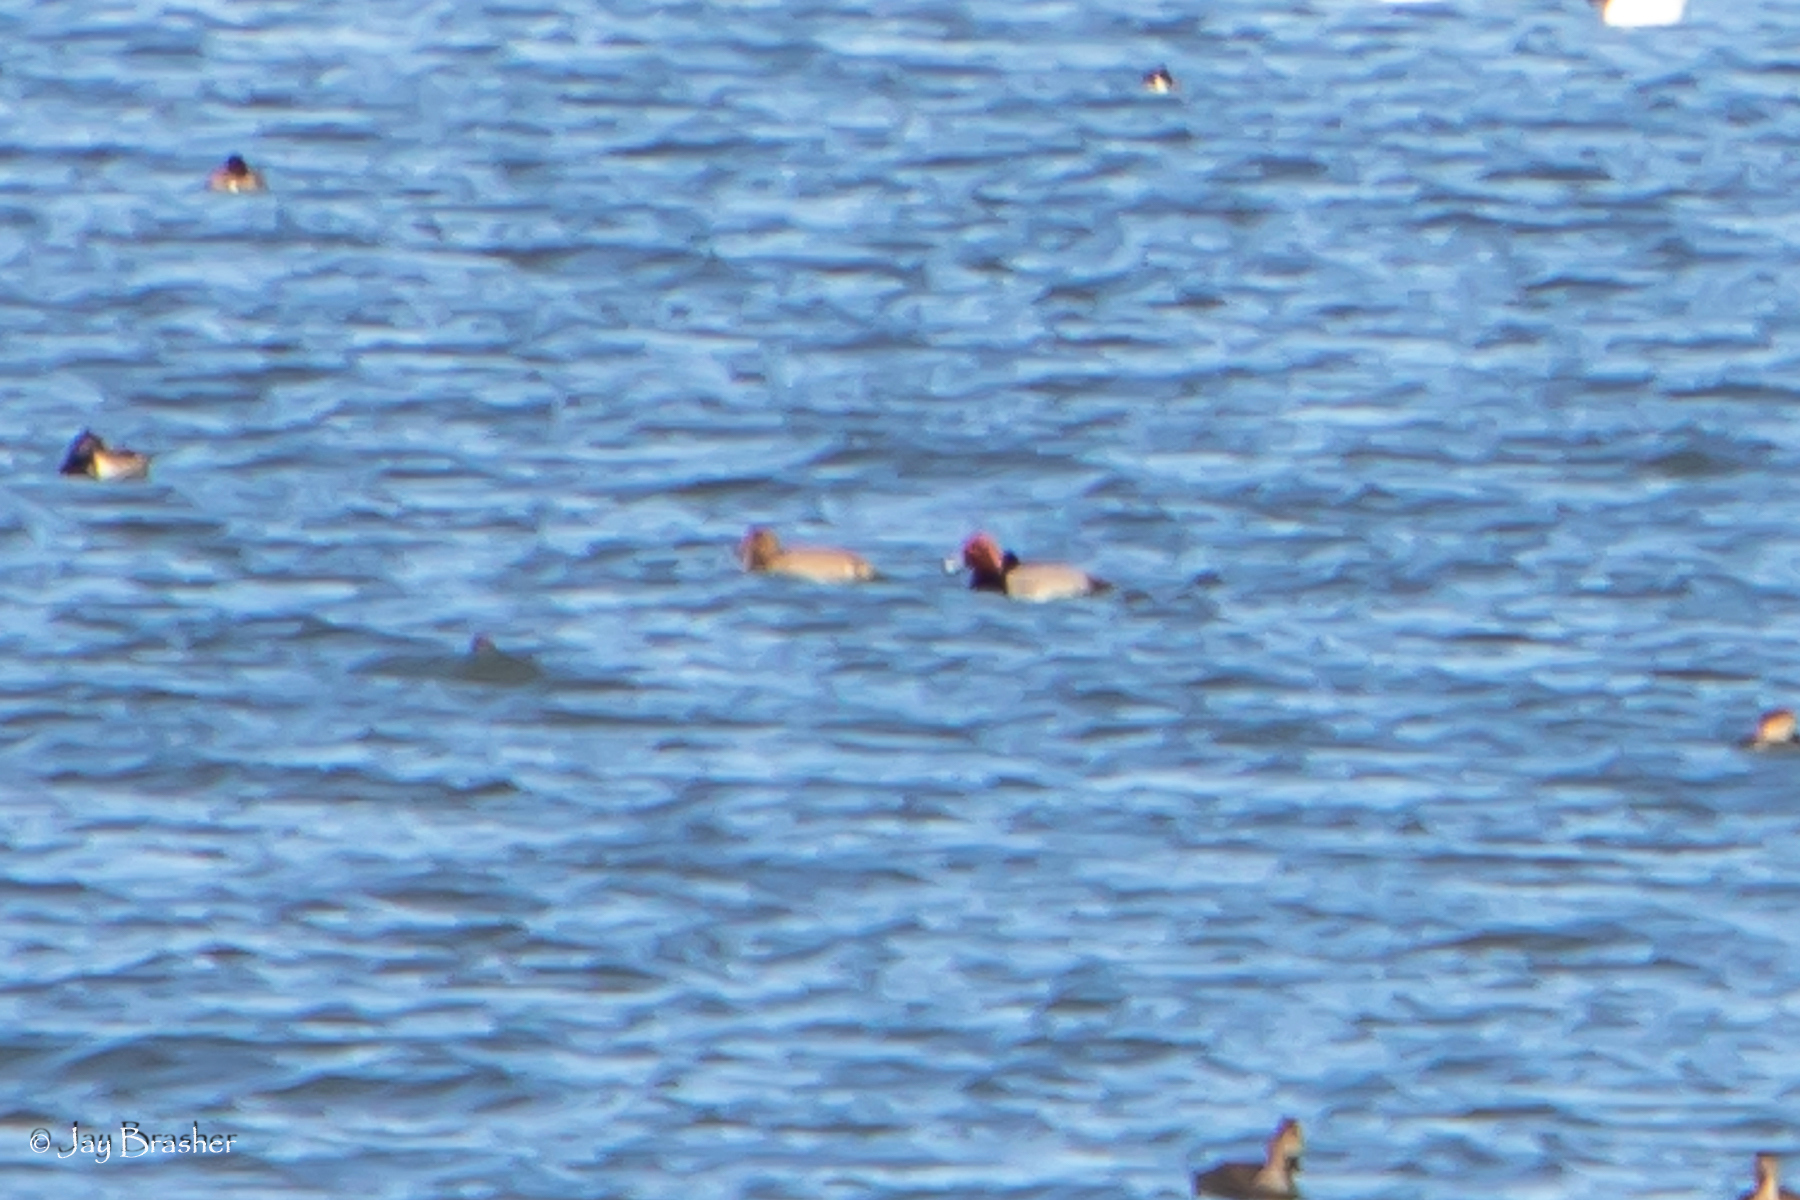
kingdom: Animalia
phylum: Chordata
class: Aves
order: Anseriformes
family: Anatidae
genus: Aythya
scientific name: Aythya americana
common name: Redhead
